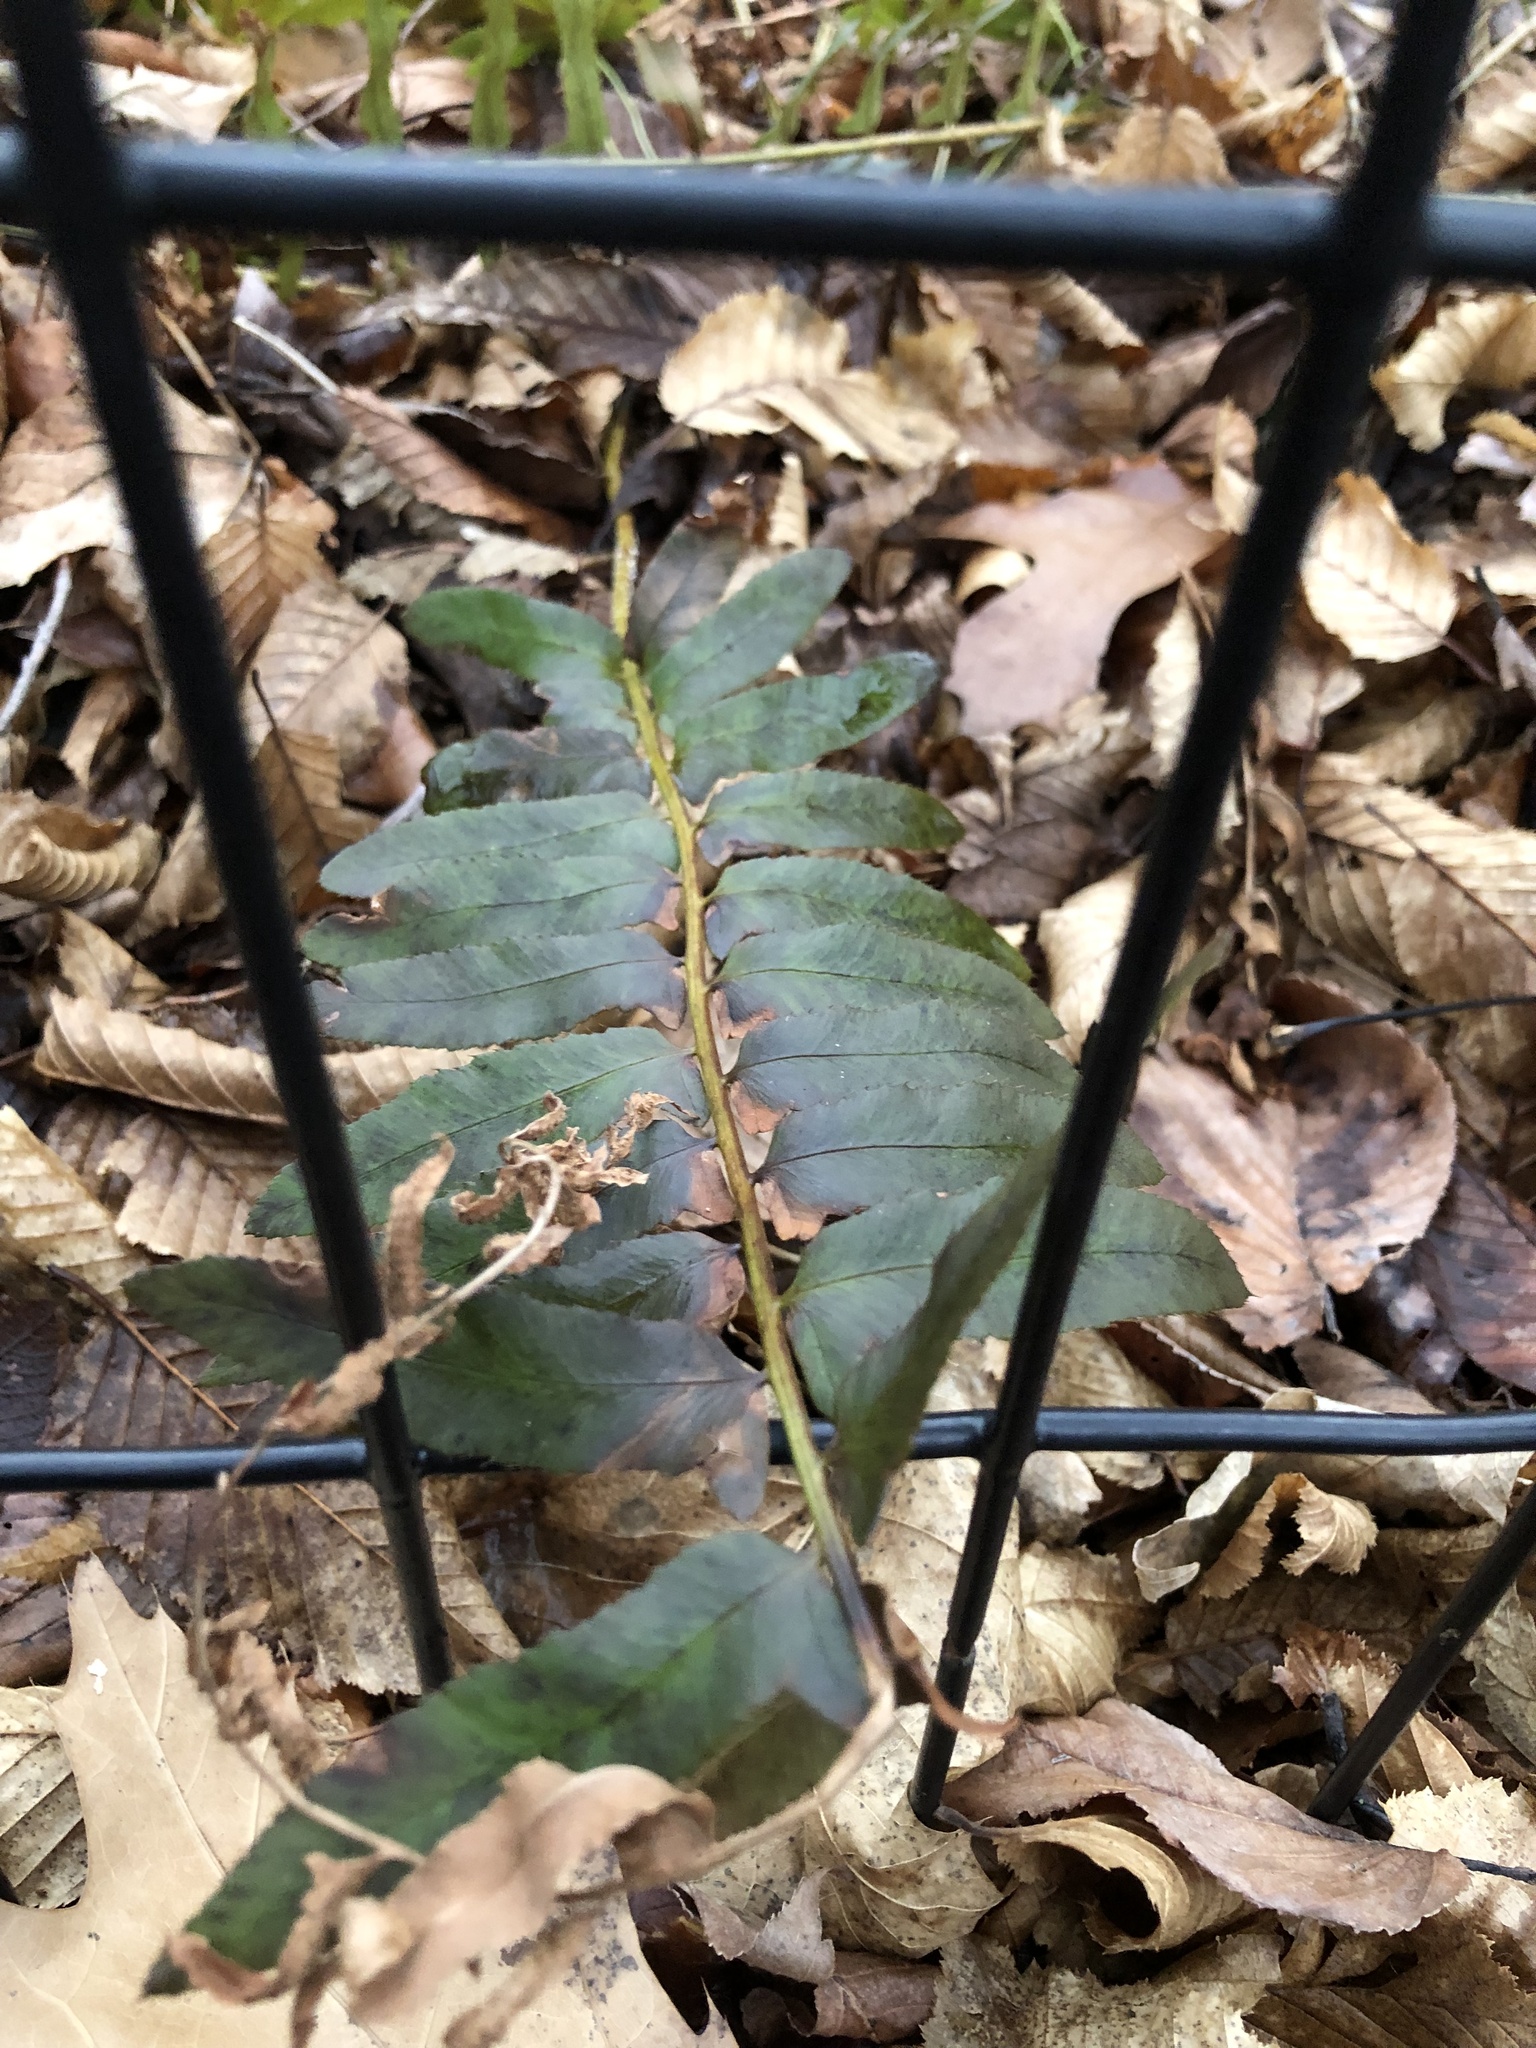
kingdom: Plantae
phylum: Tracheophyta
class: Polypodiopsida
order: Polypodiales
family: Dryopteridaceae
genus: Polystichum
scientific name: Polystichum acrostichoides
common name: Christmas fern
